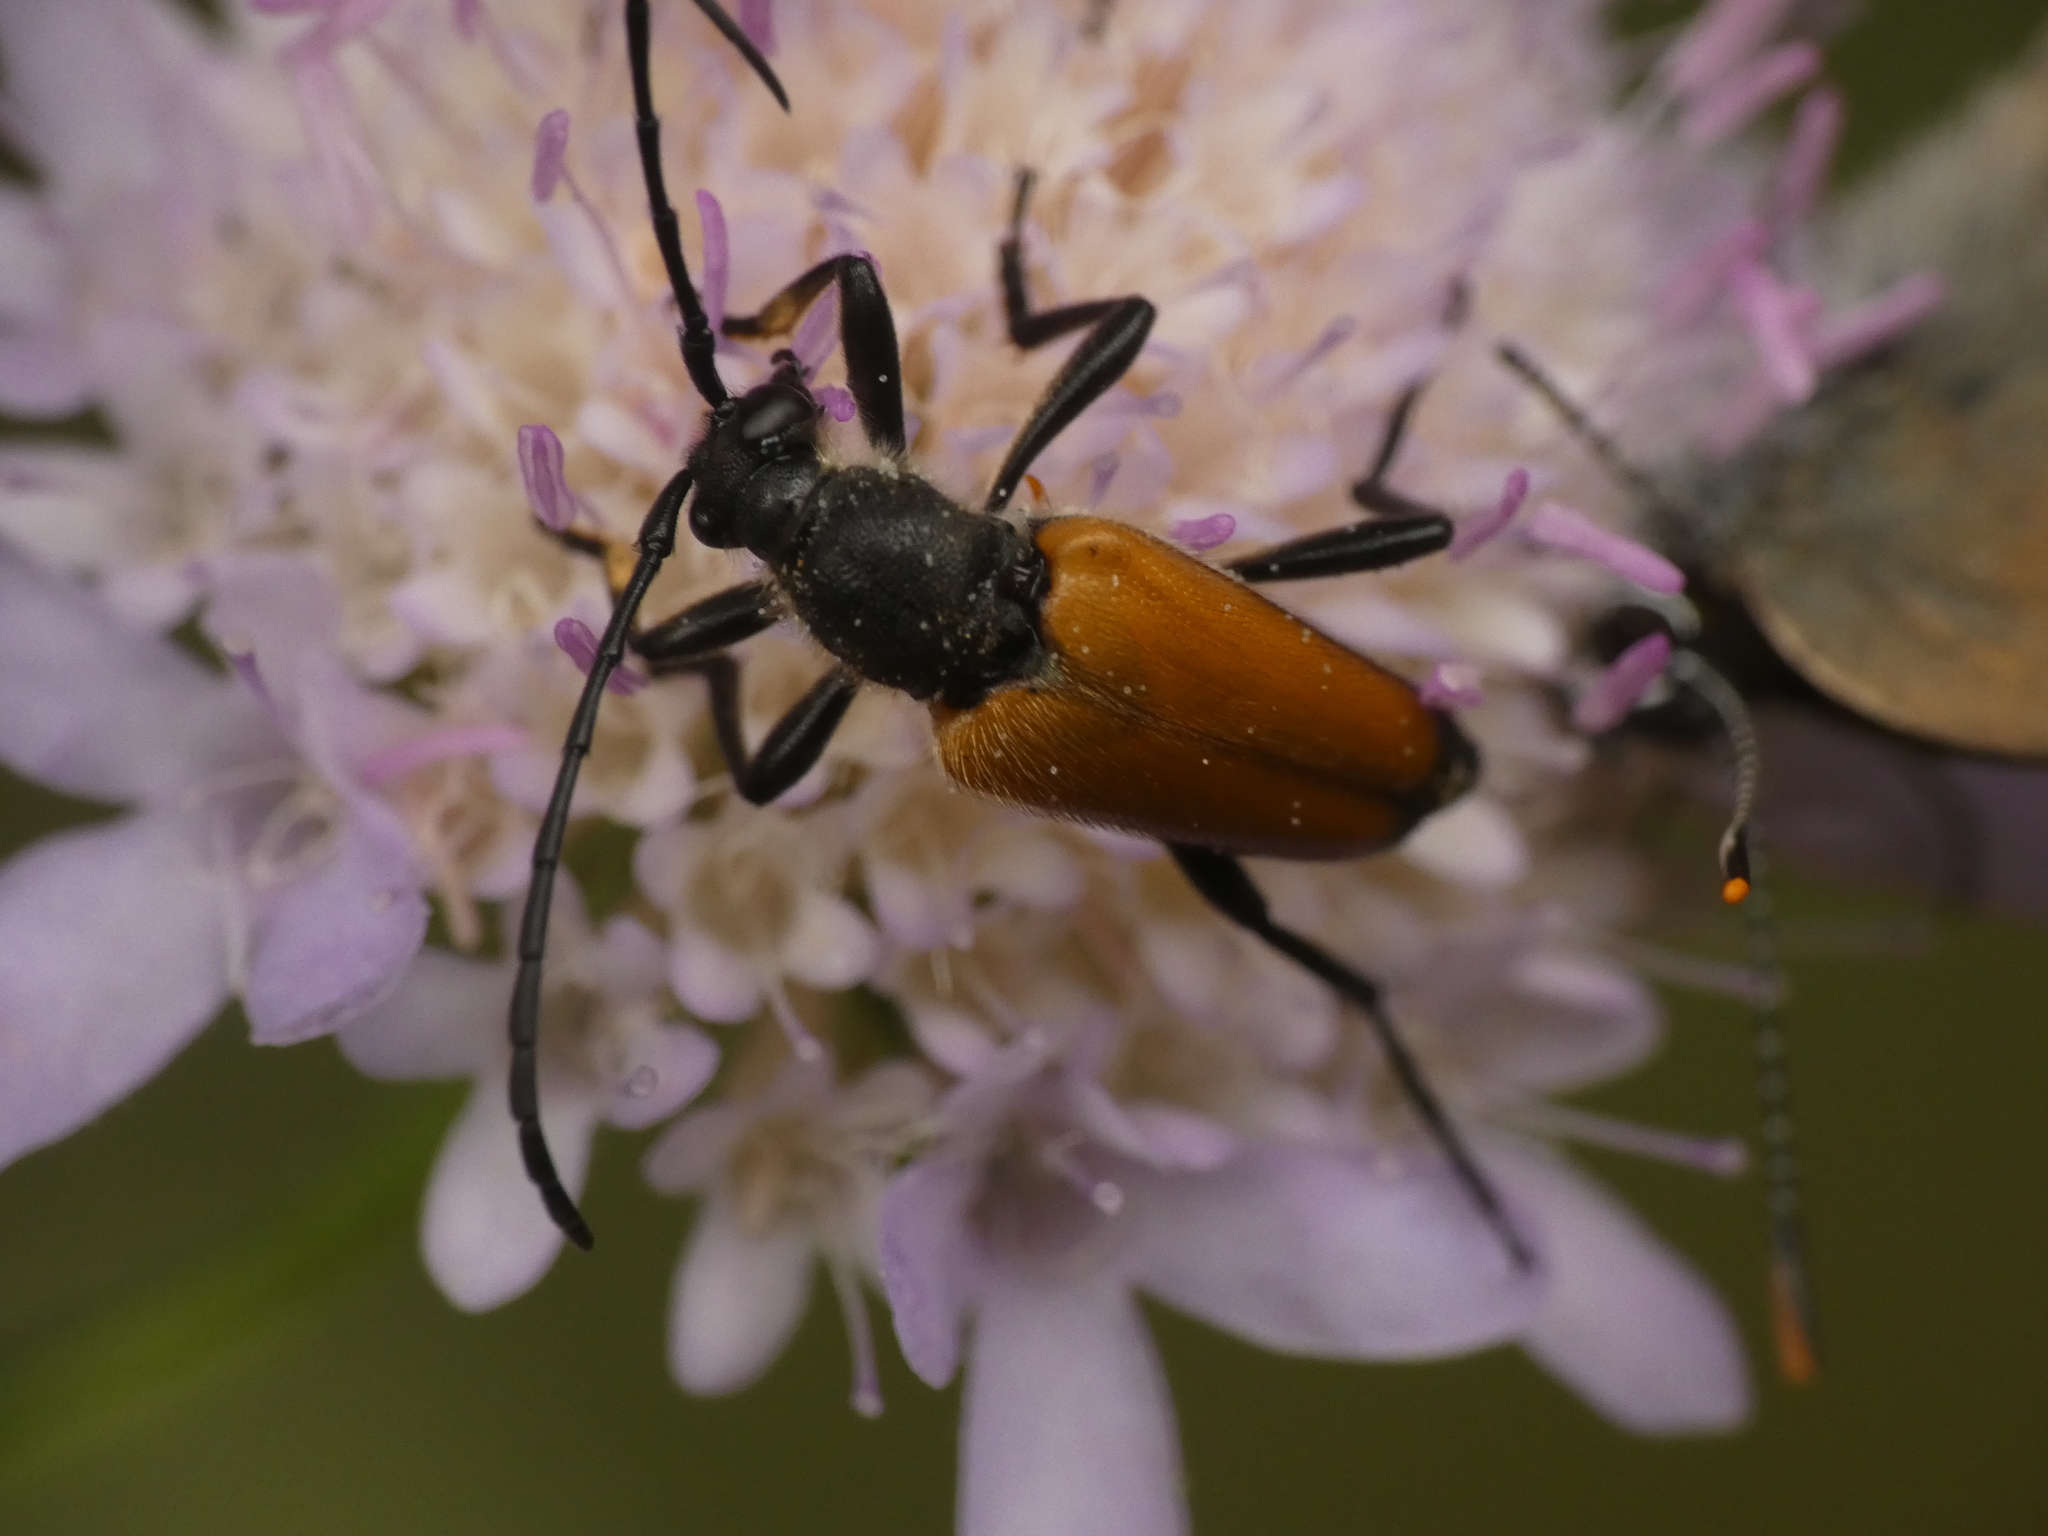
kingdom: Animalia
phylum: Arthropoda
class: Insecta
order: Coleoptera
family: Cerambycidae
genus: Paracorymbia
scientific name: Paracorymbia fulva
